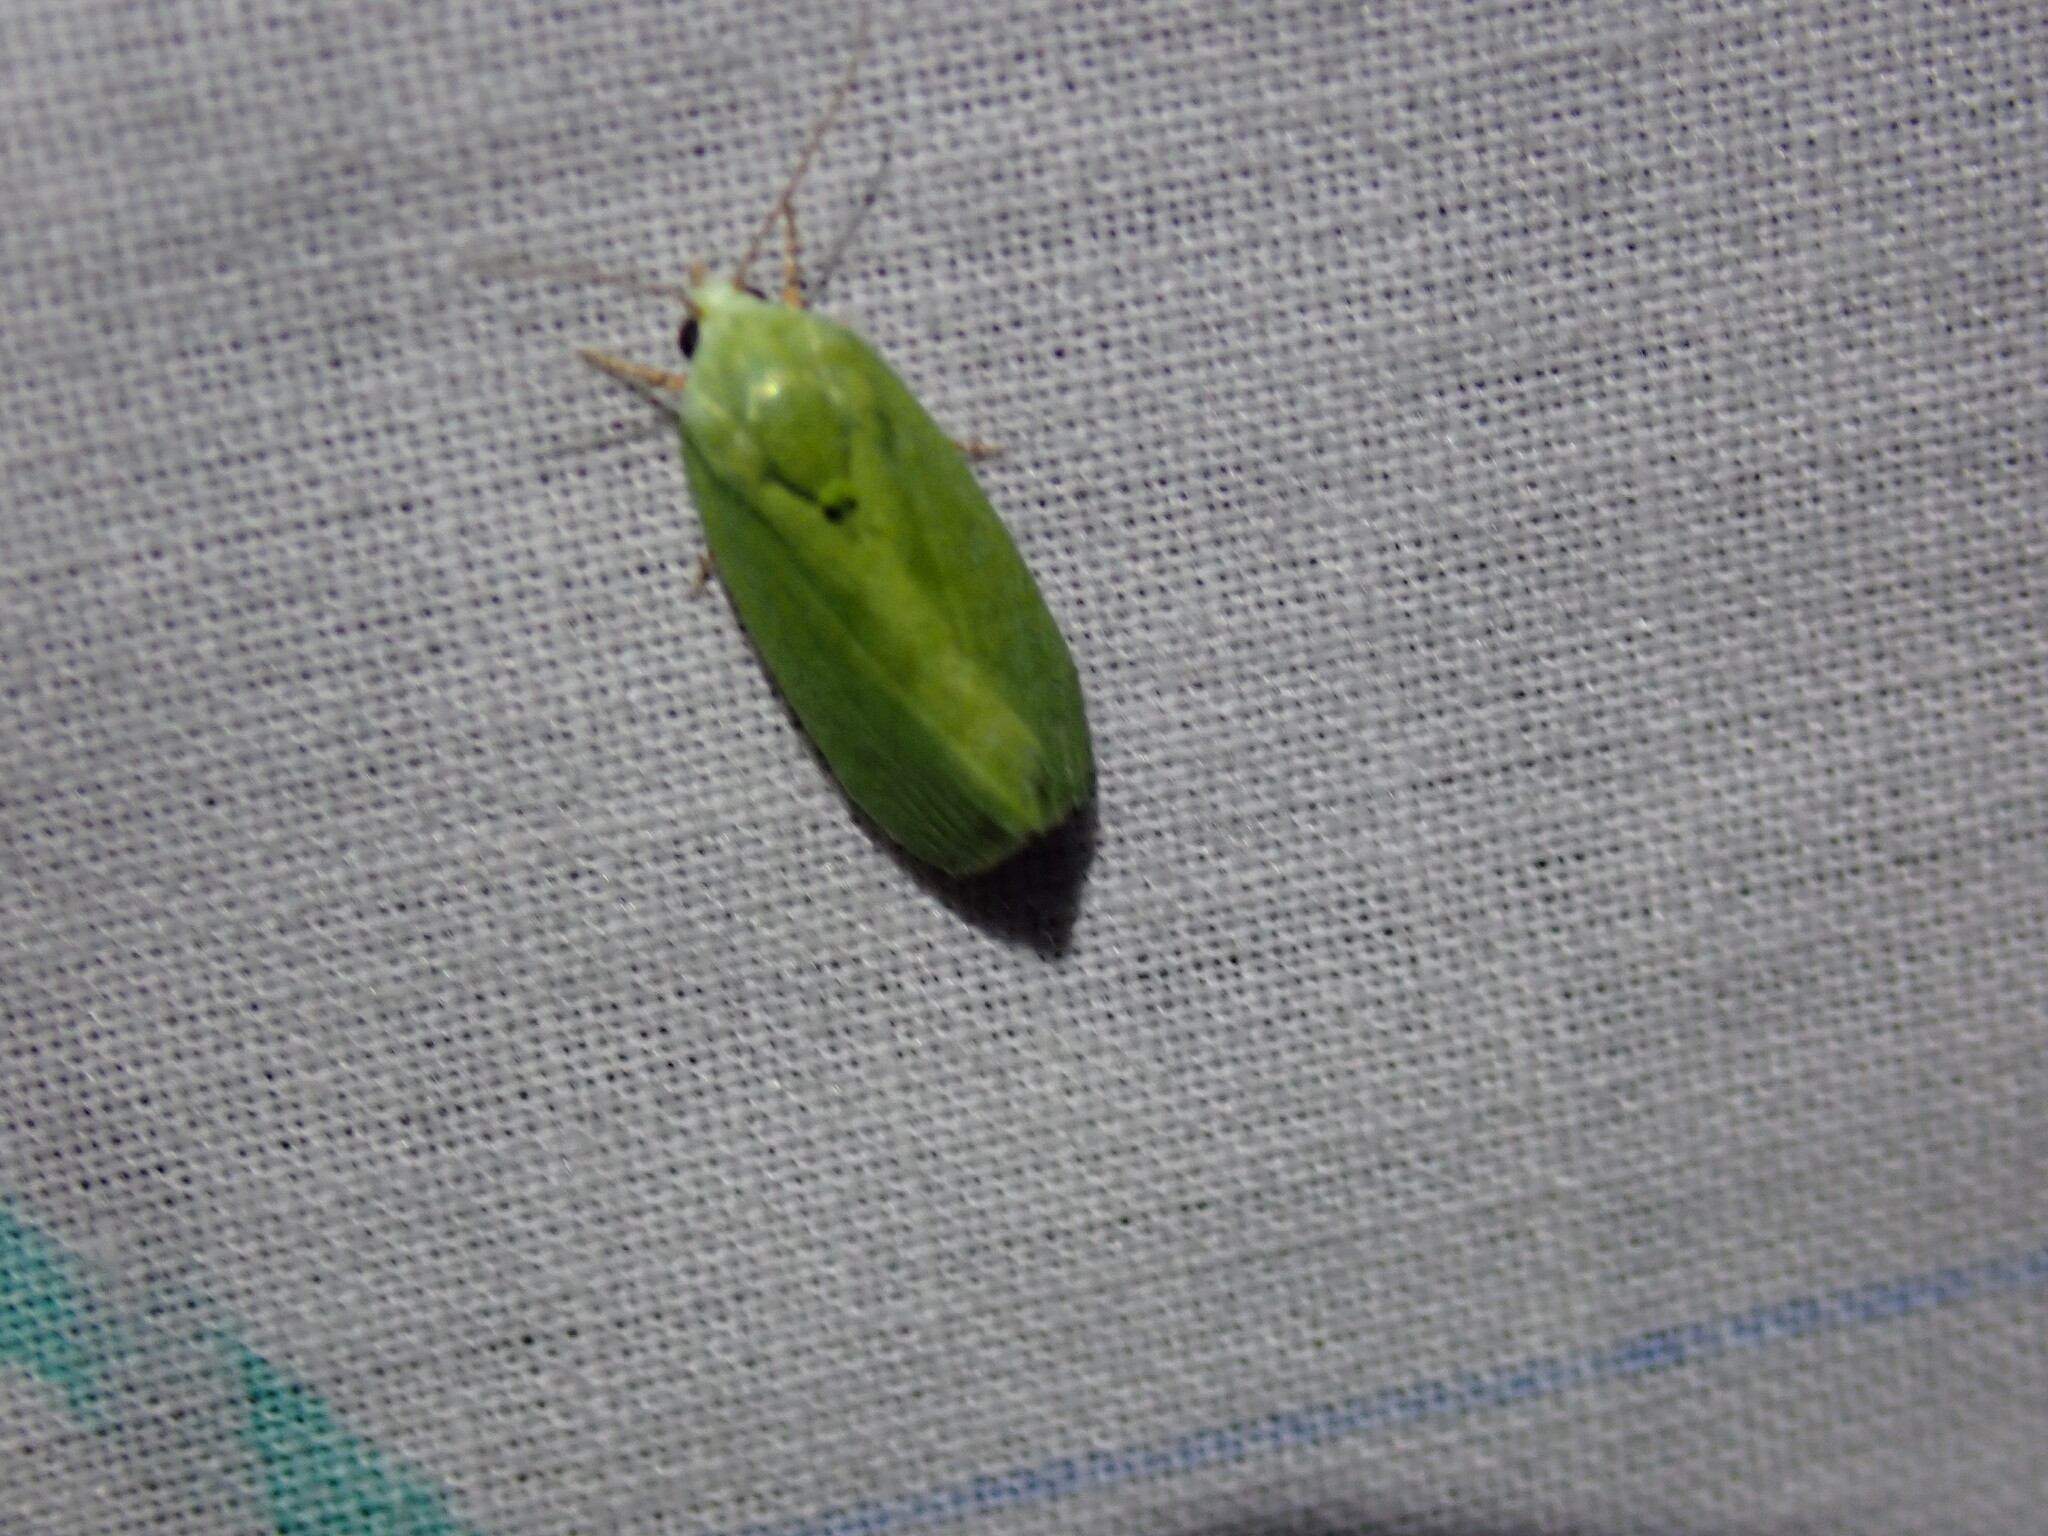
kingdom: Animalia
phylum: Arthropoda
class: Insecta
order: Lepidoptera
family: Nolidae
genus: Earias
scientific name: Earias insulana
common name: Egyptian bollworm
